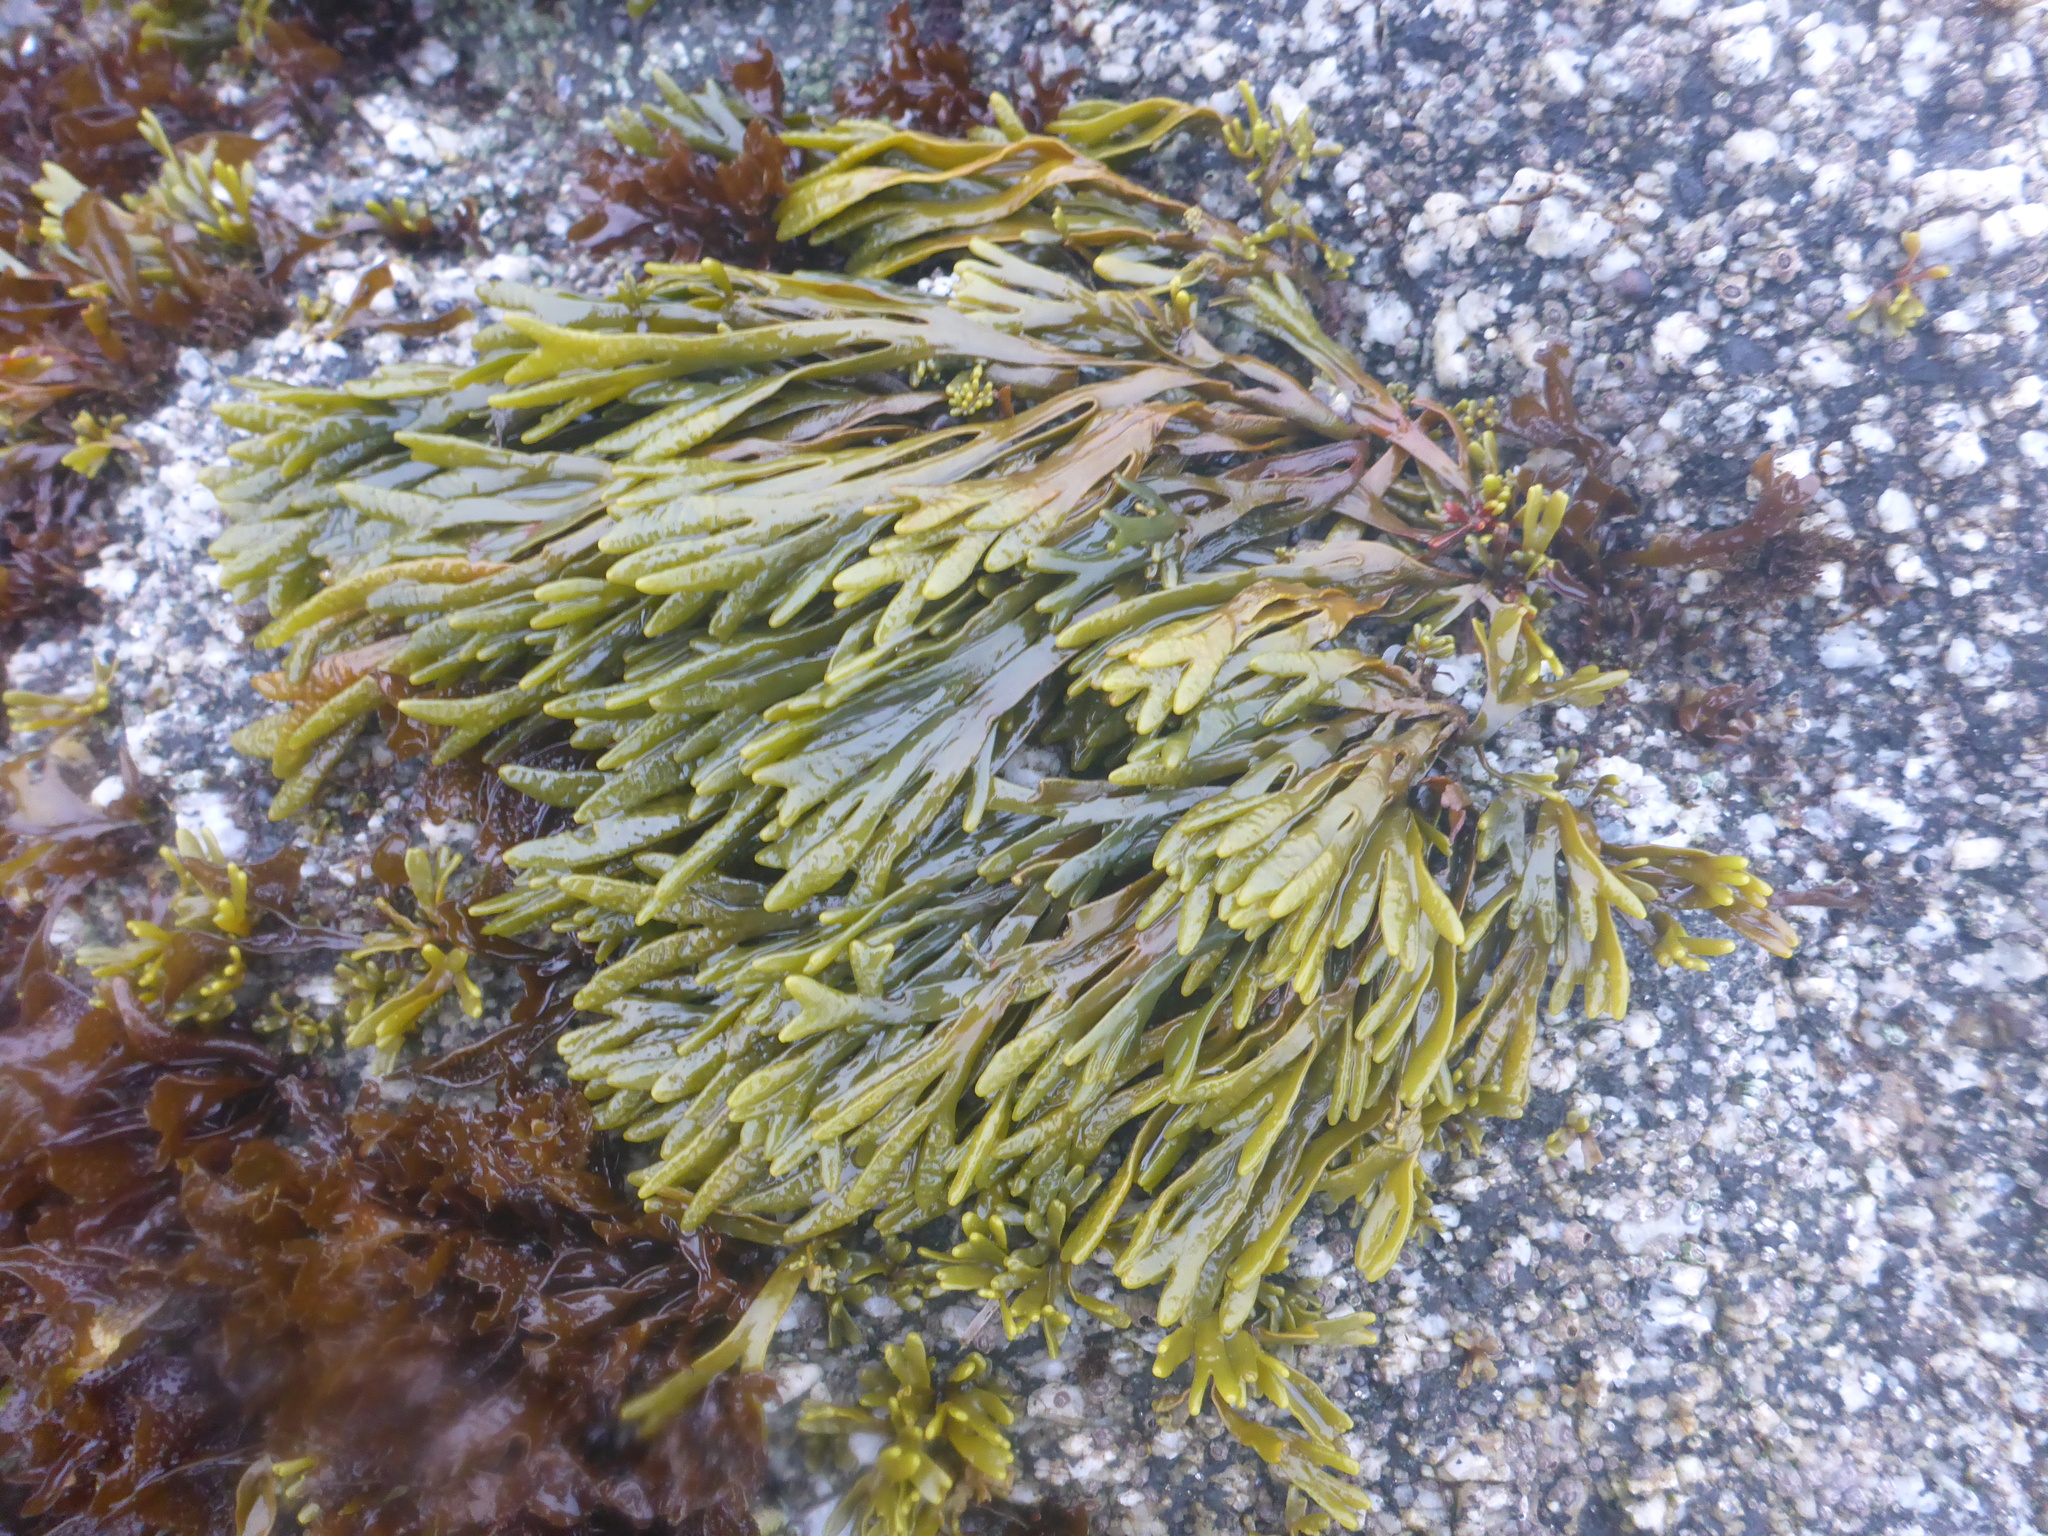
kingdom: Chromista
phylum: Ochrophyta
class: Phaeophyceae
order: Fucales
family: Fucaceae
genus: Pelvetiopsis
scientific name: Pelvetiopsis limitata
